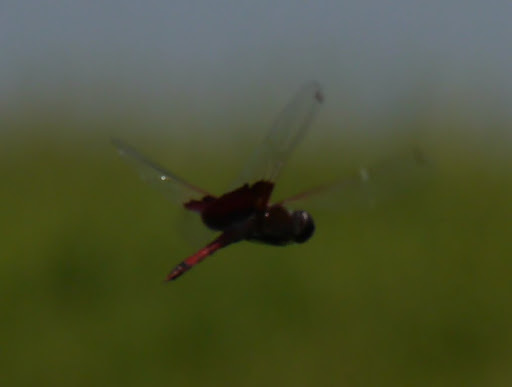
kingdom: Animalia
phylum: Arthropoda
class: Insecta
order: Odonata
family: Libellulidae
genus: Tramea
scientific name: Tramea carolina
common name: Carolina saddlebags
